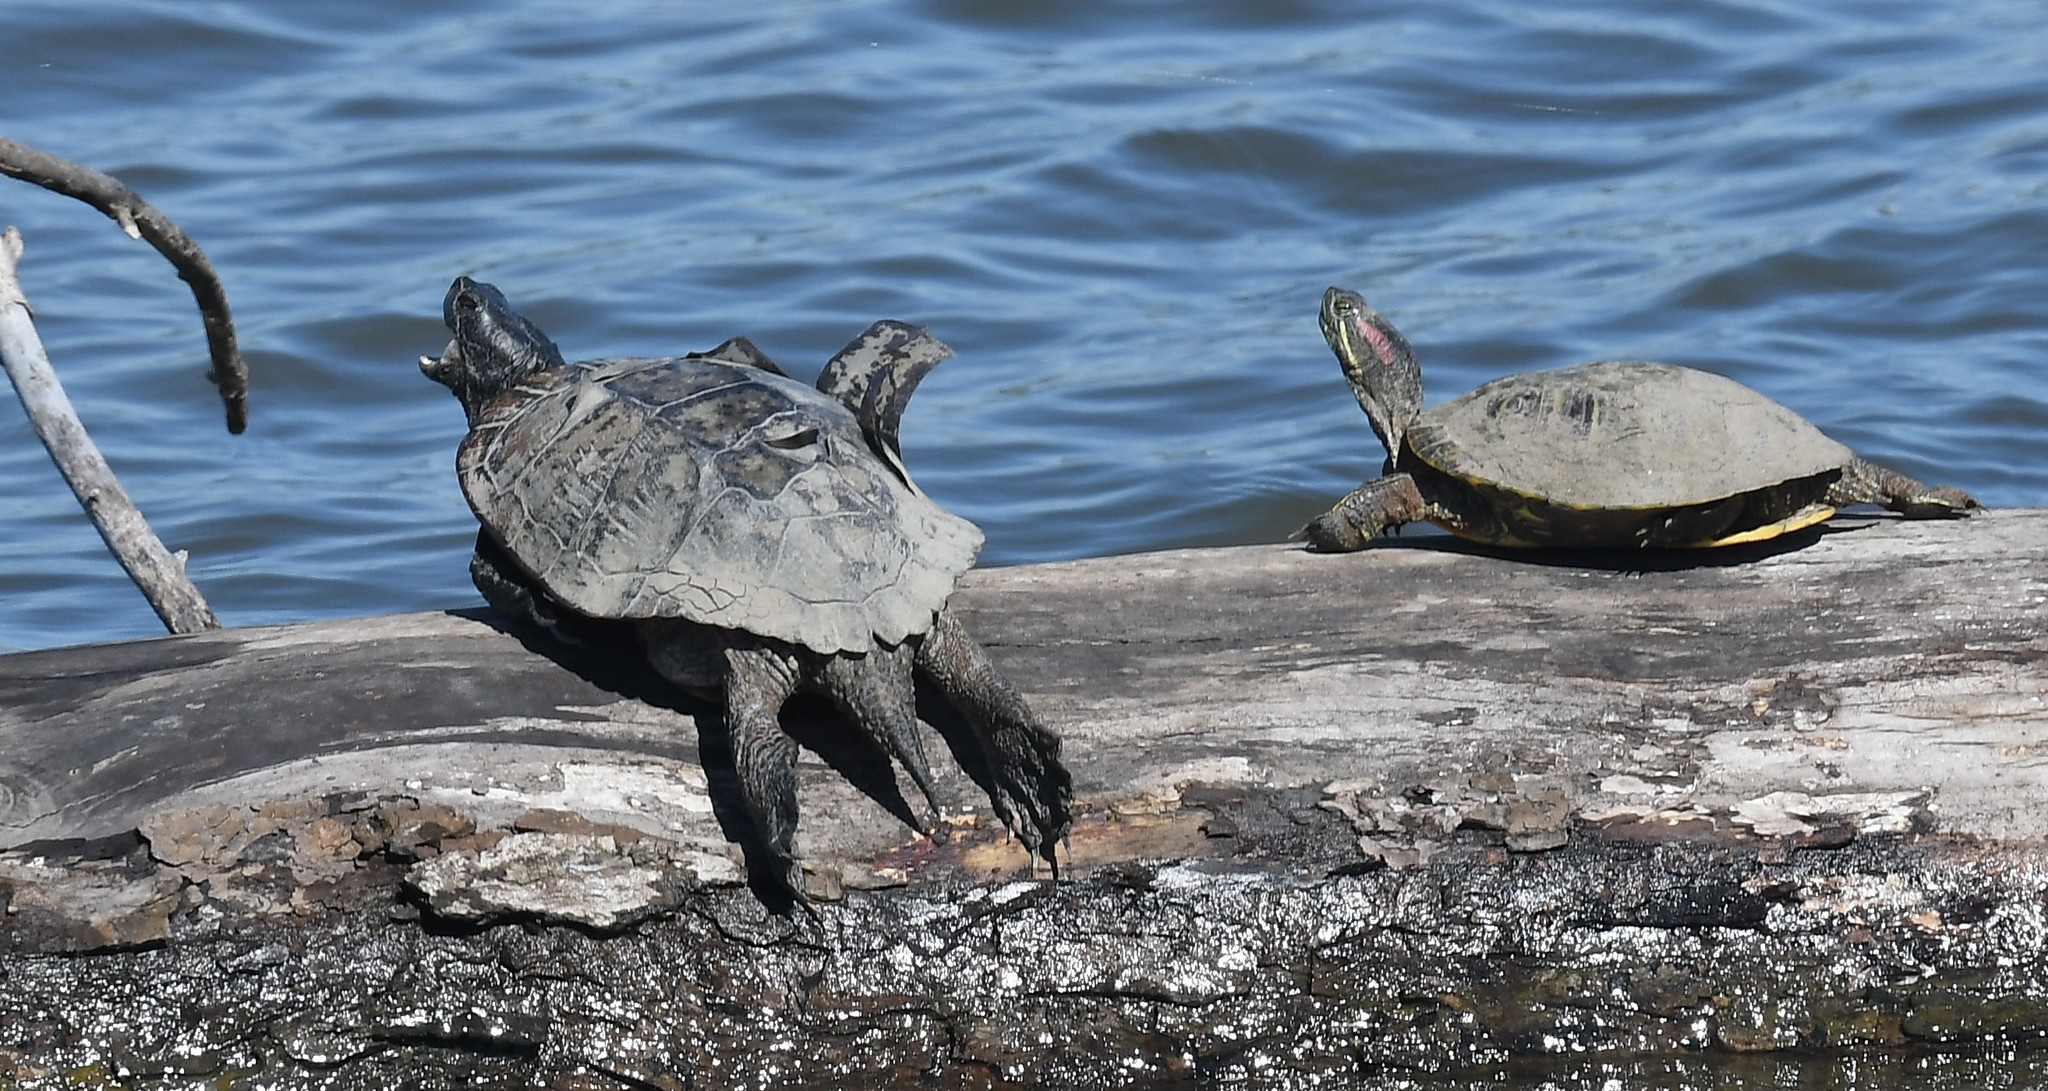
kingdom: Animalia
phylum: Chordata
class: Testudines
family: Emydidae
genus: Trachemys
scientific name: Trachemys scripta
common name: Slider
